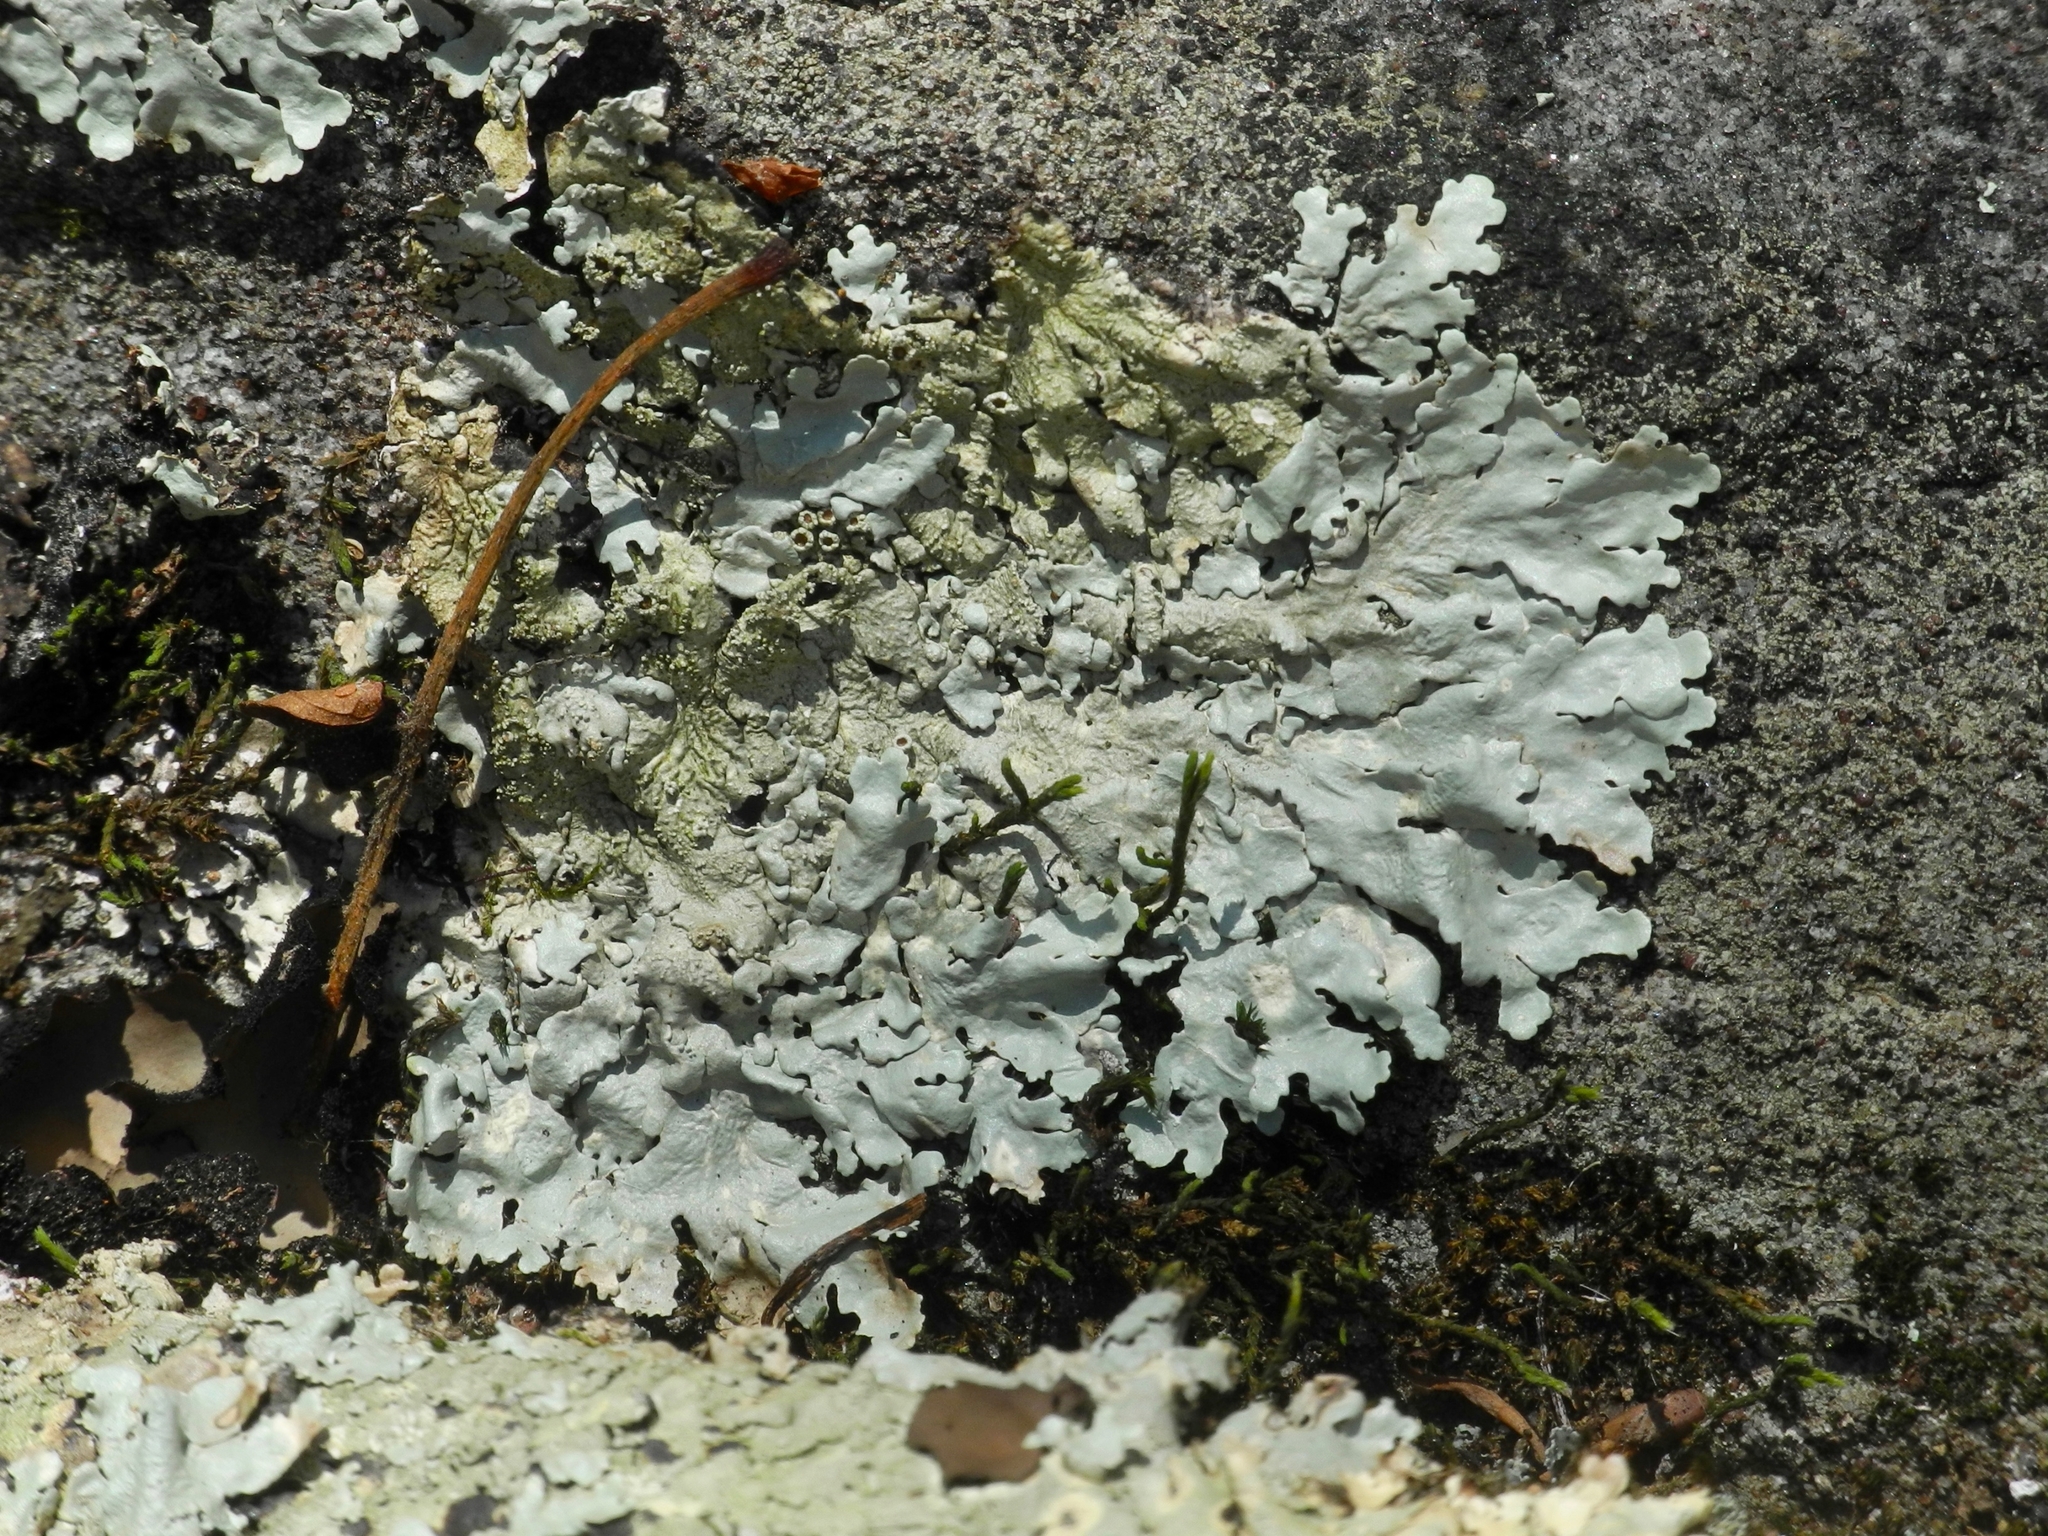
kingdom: Fungi
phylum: Ascomycota
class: Lecanoromycetes
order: Lecanorales
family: Parmeliaceae
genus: Flavoparmelia
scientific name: Flavoparmelia caperata
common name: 40-mile per hour lichen
